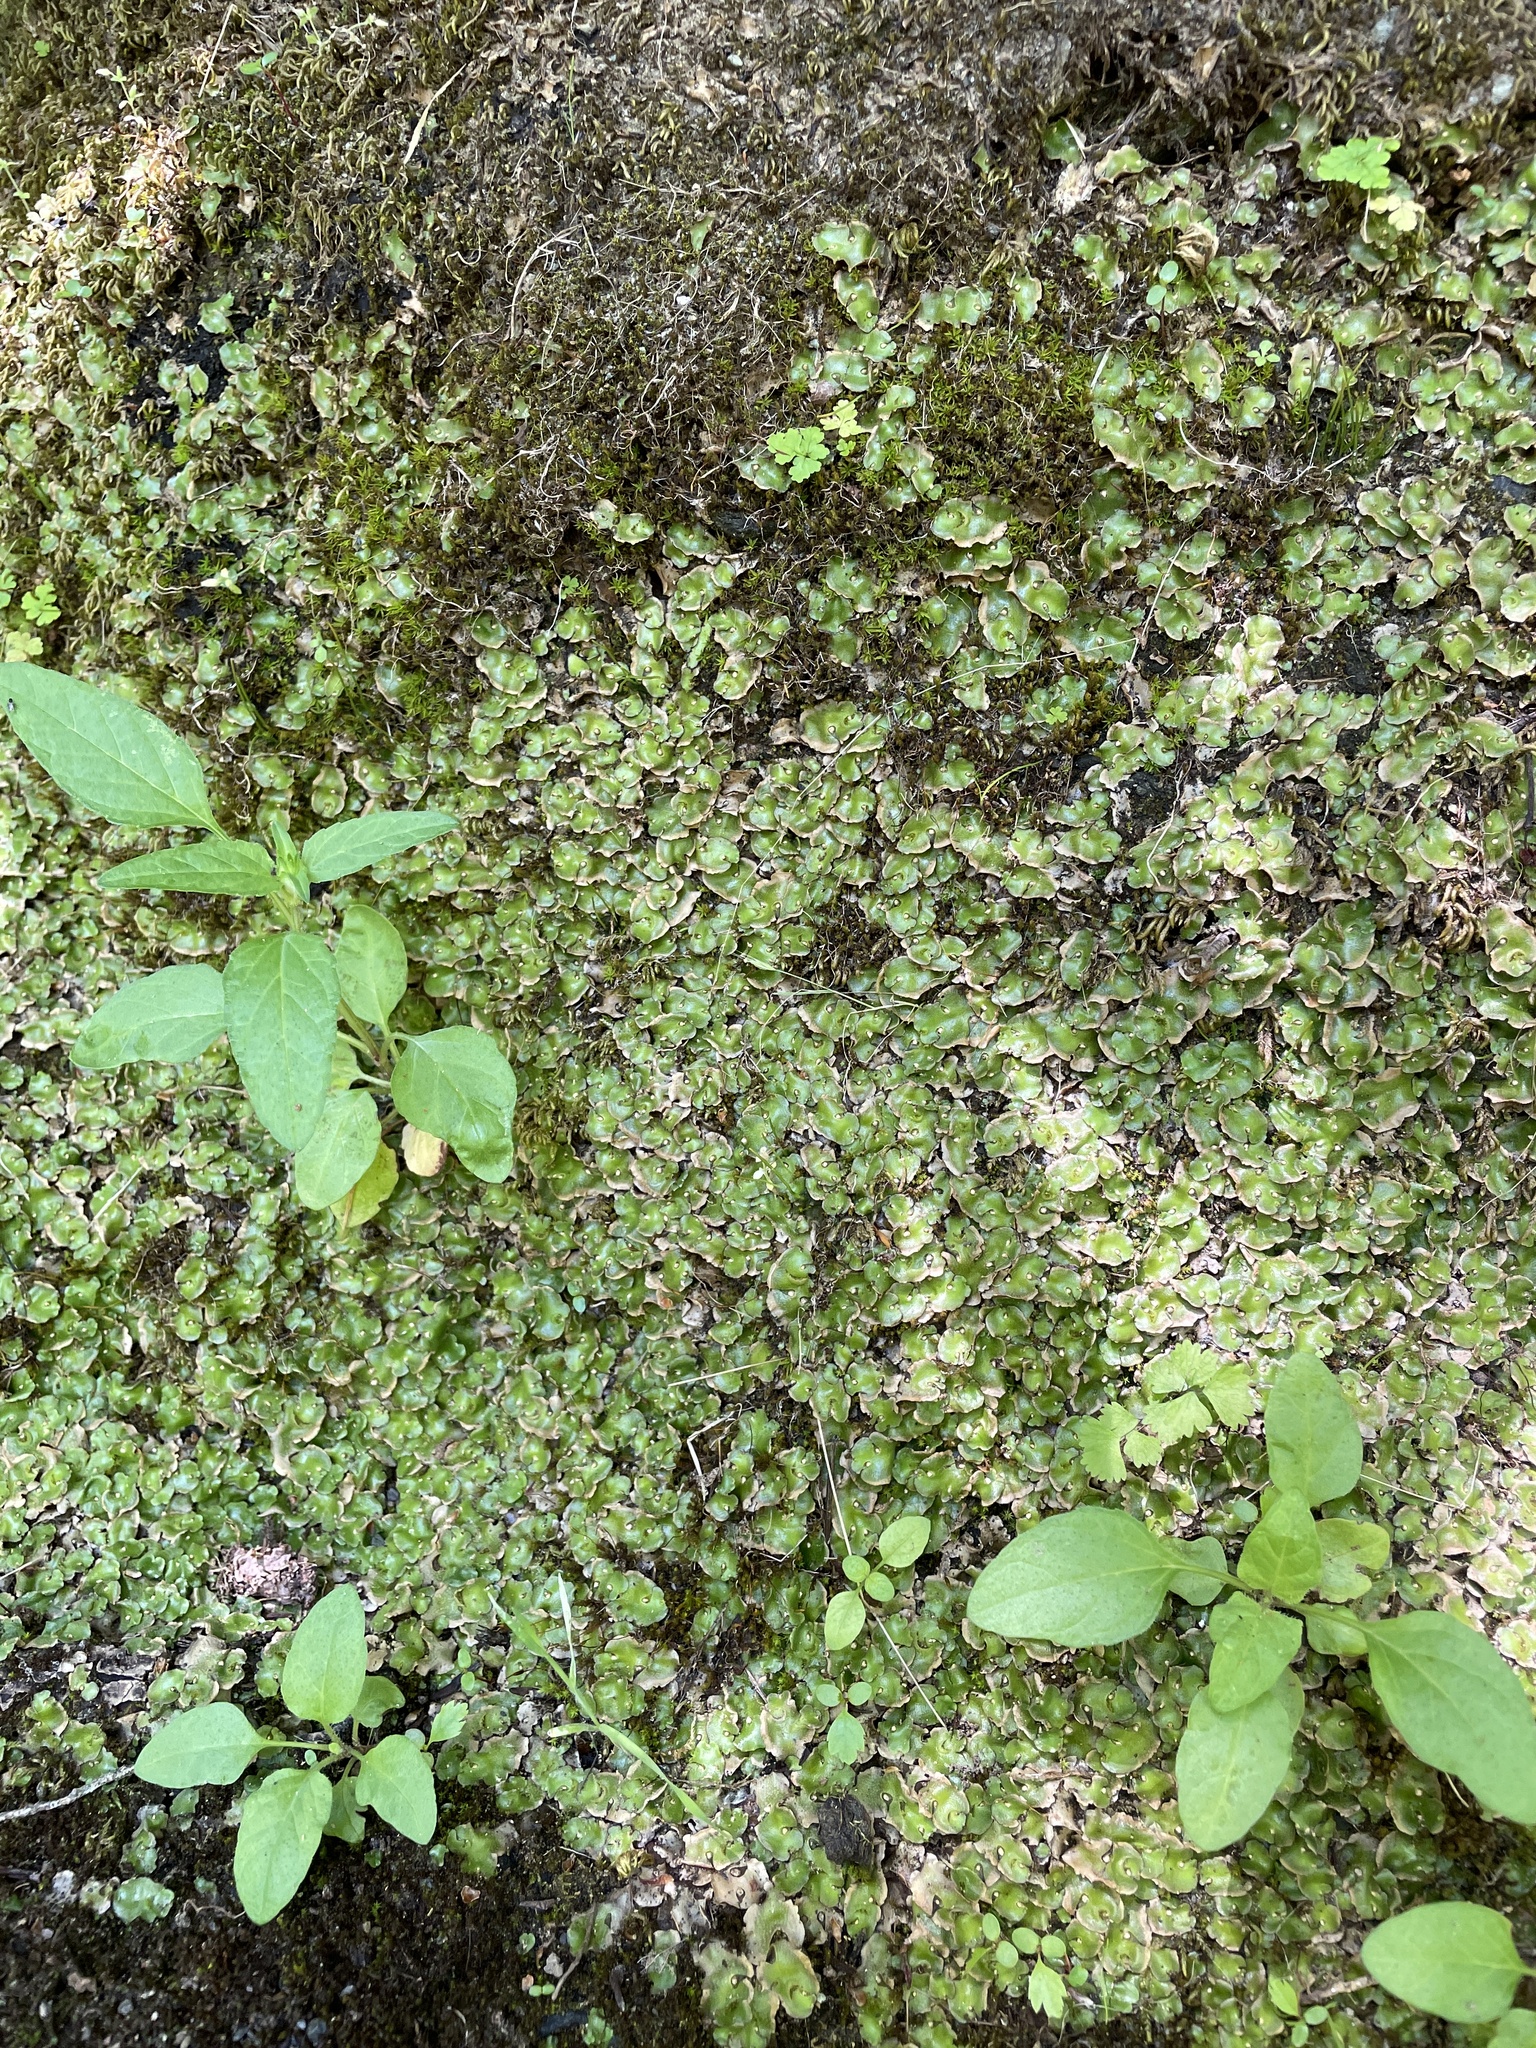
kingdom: Plantae
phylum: Marchantiophyta
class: Marchantiopsida
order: Lunulariales
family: Lunulariaceae
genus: Lunularia
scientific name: Lunularia cruciata
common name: Crescent-cup liverwort
